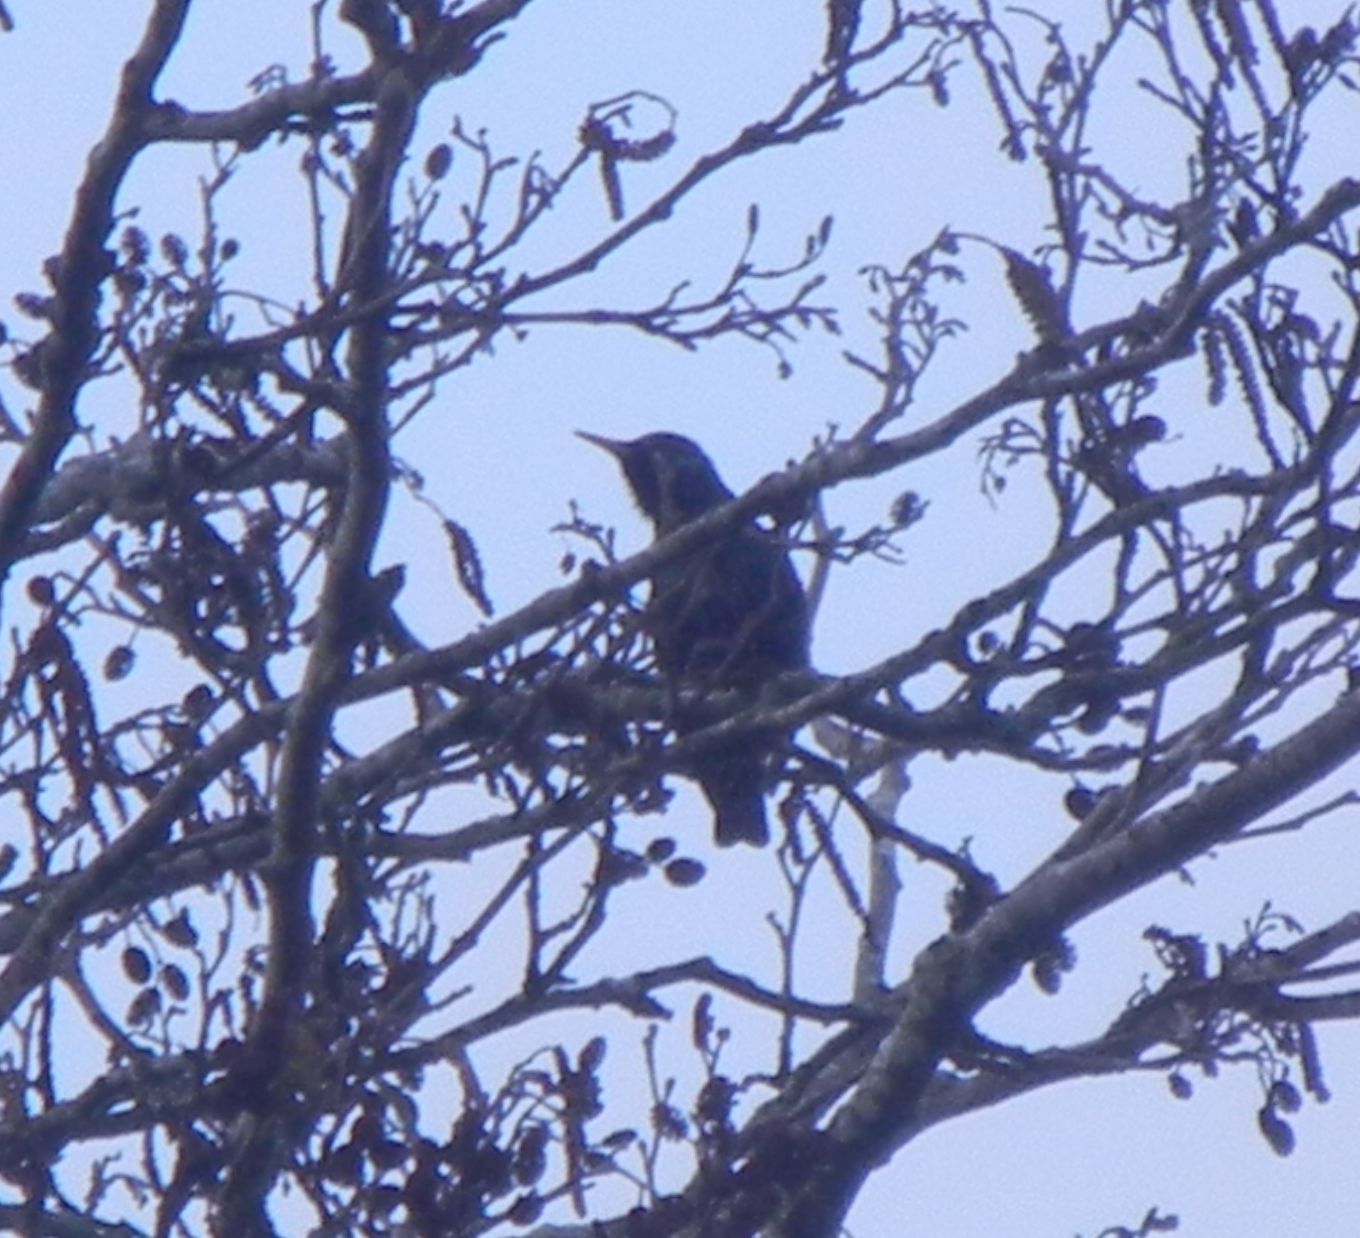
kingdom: Animalia
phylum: Chordata
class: Aves
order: Passeriformes
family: Sturnidae
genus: Sturnus
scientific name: Sturnus vulgaris
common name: Common starling
